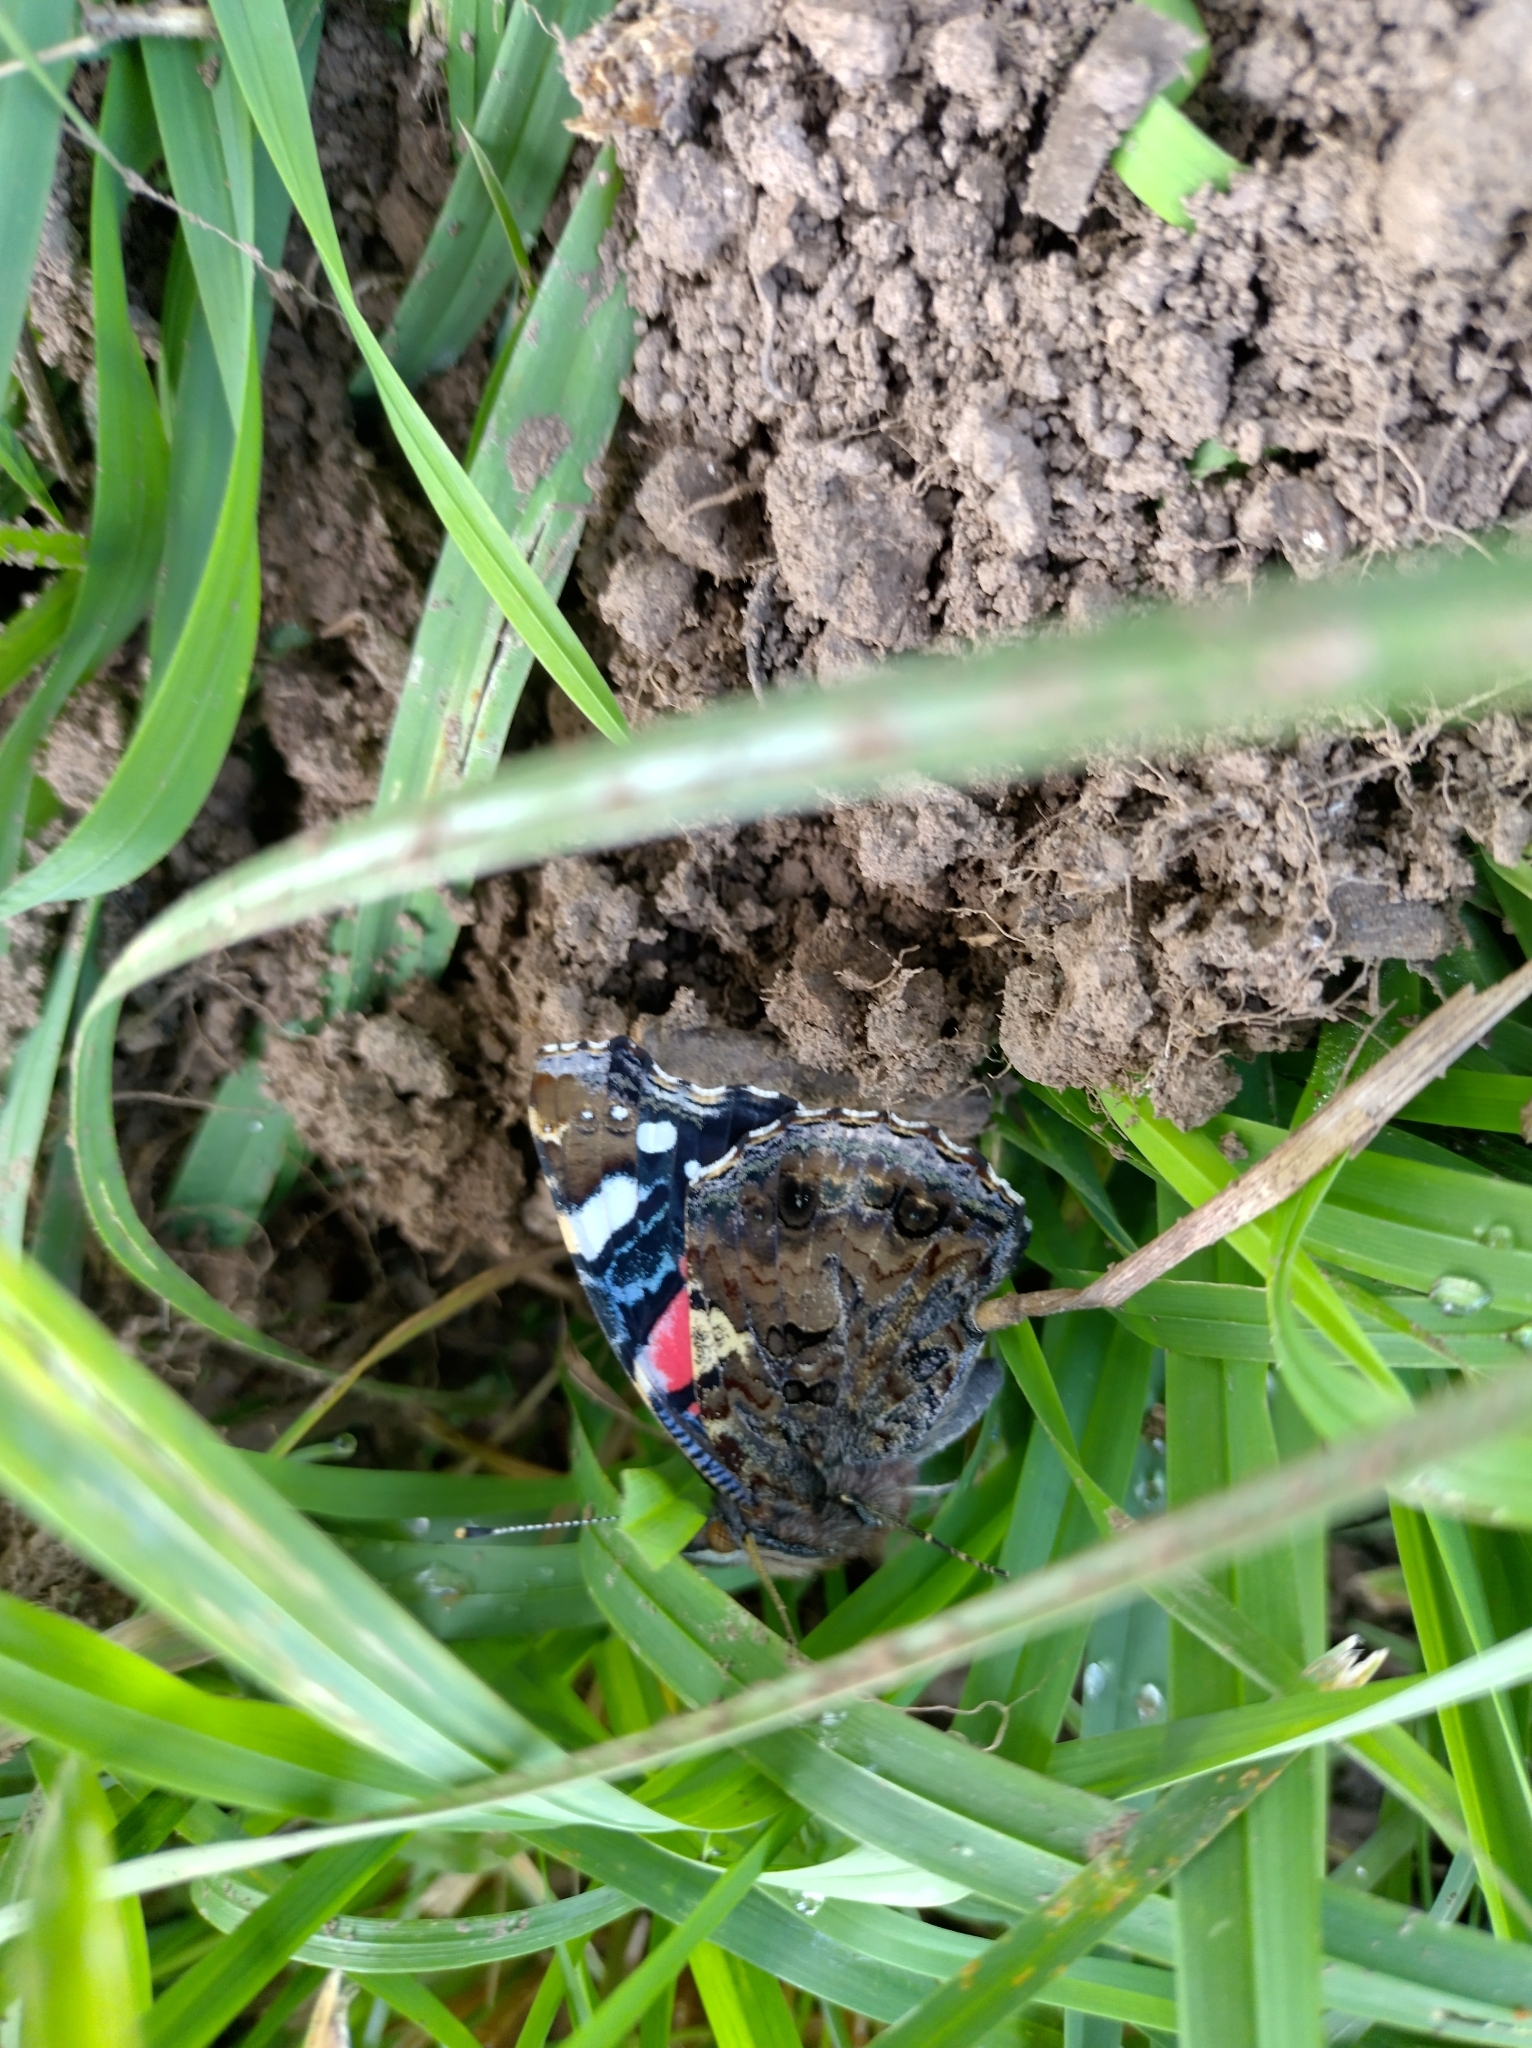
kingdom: Animalia
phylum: Arthropoda
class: Insecta
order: Lepidoptera
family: Nymphalidae
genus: Vanessa
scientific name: Vanessa atalanta
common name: Red admiral
